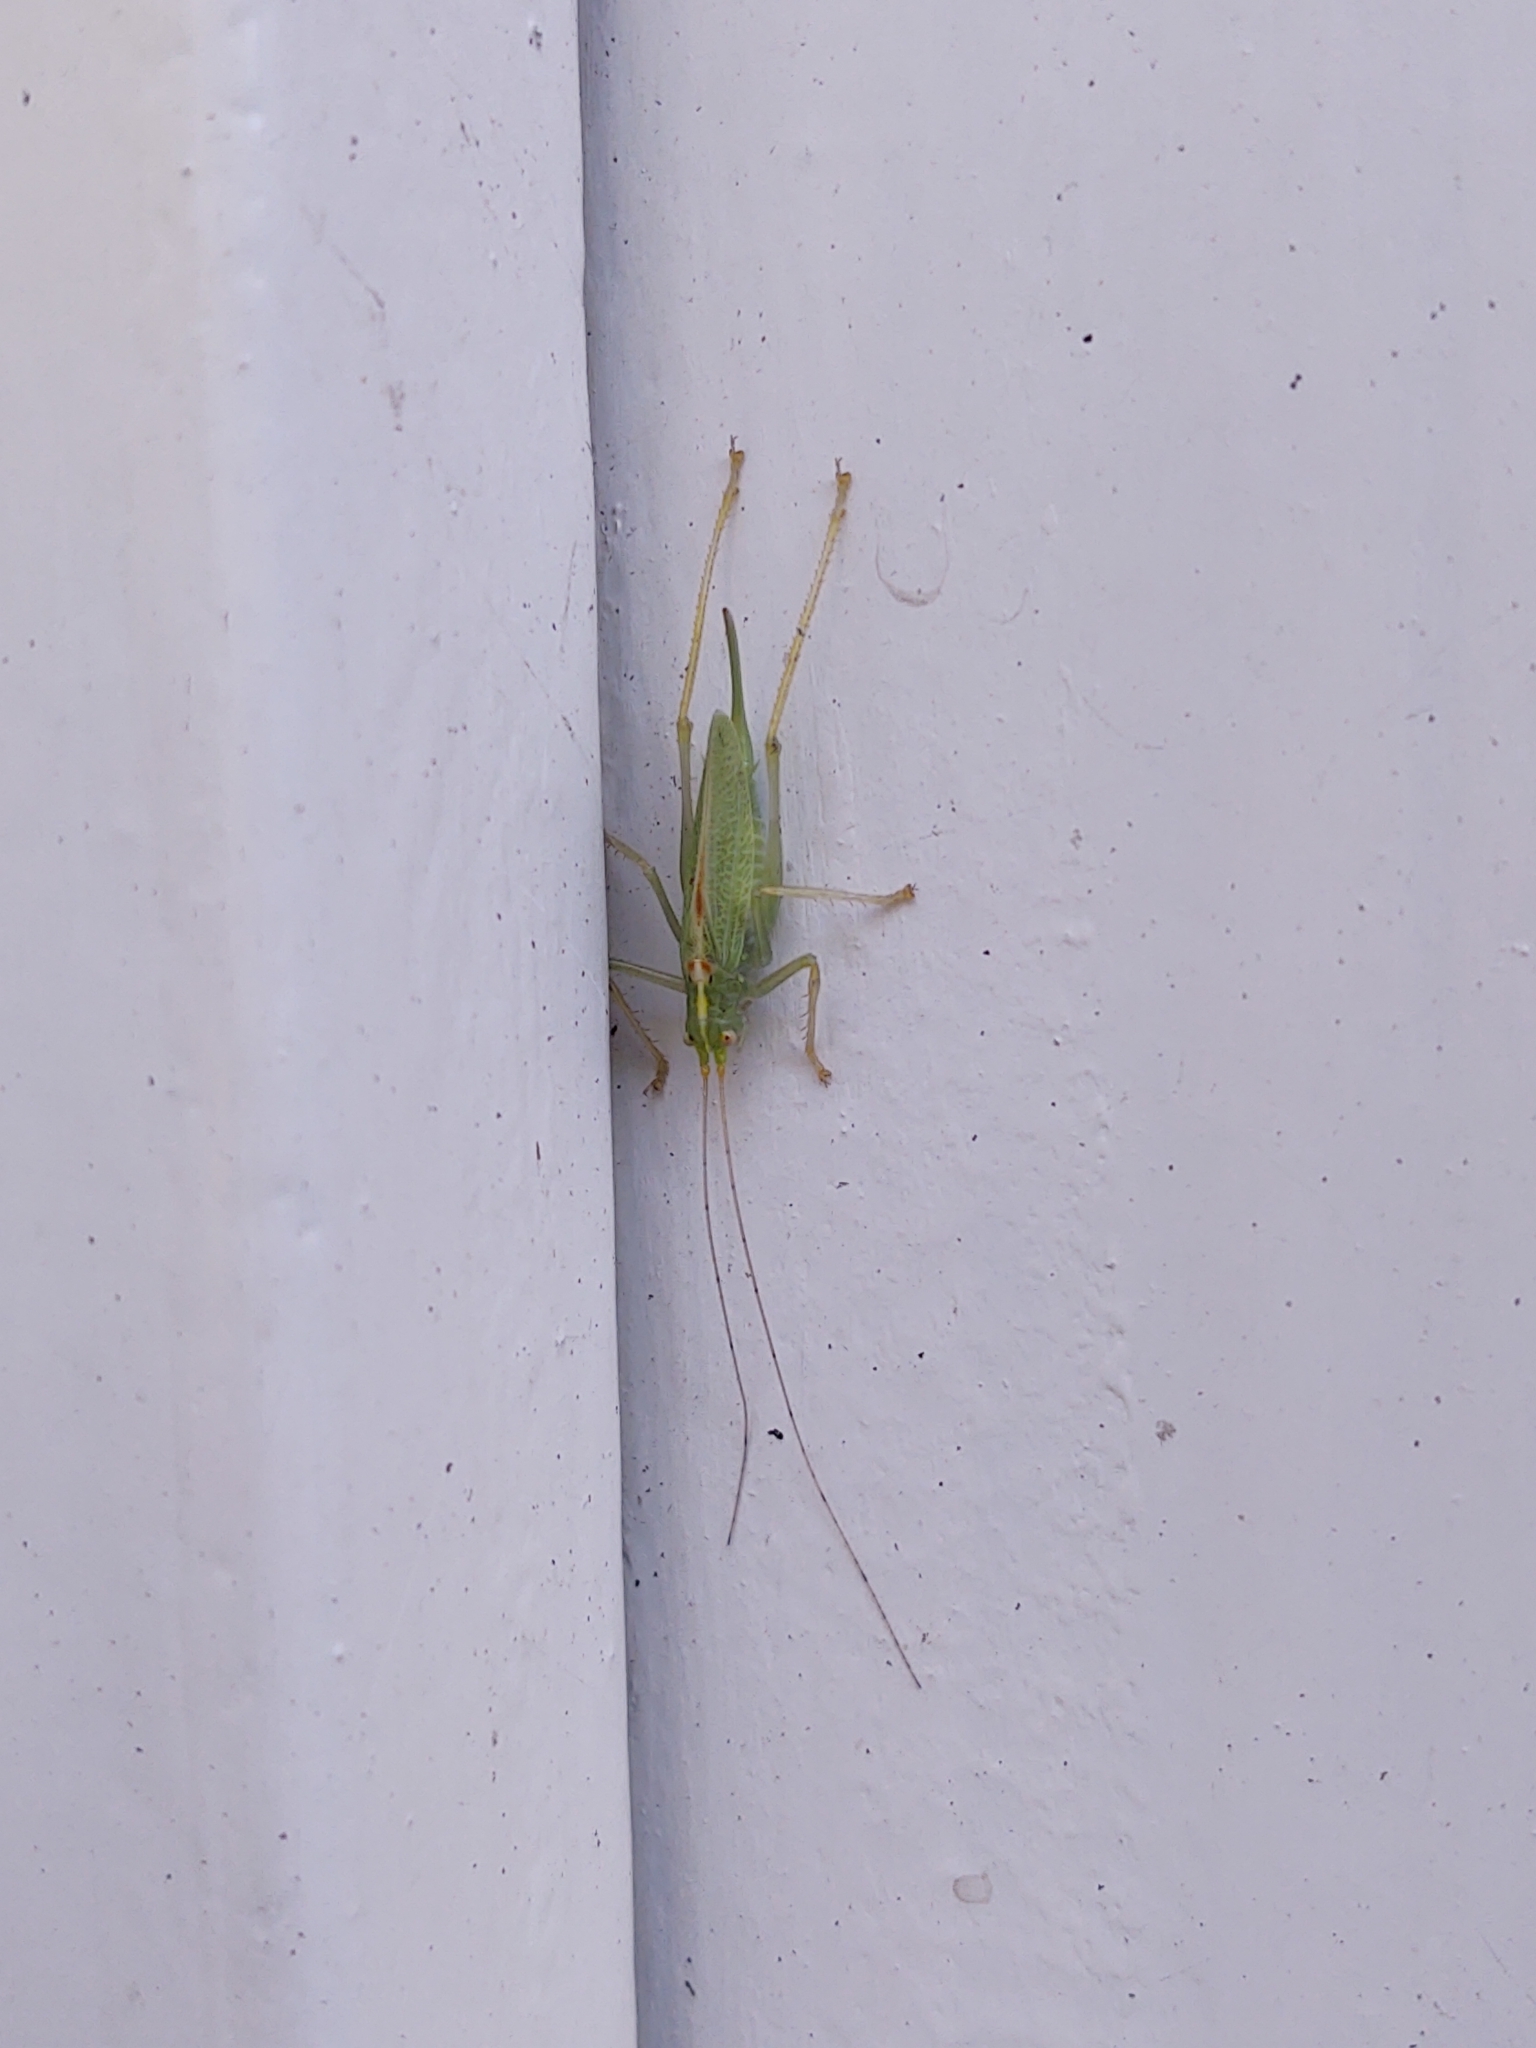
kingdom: Animalia
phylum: Arthropoda
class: Insecta
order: Orthoptera
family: Tettigoniidae
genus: Meconema
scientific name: Meconema thalassinum
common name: Oak bush-cricket
